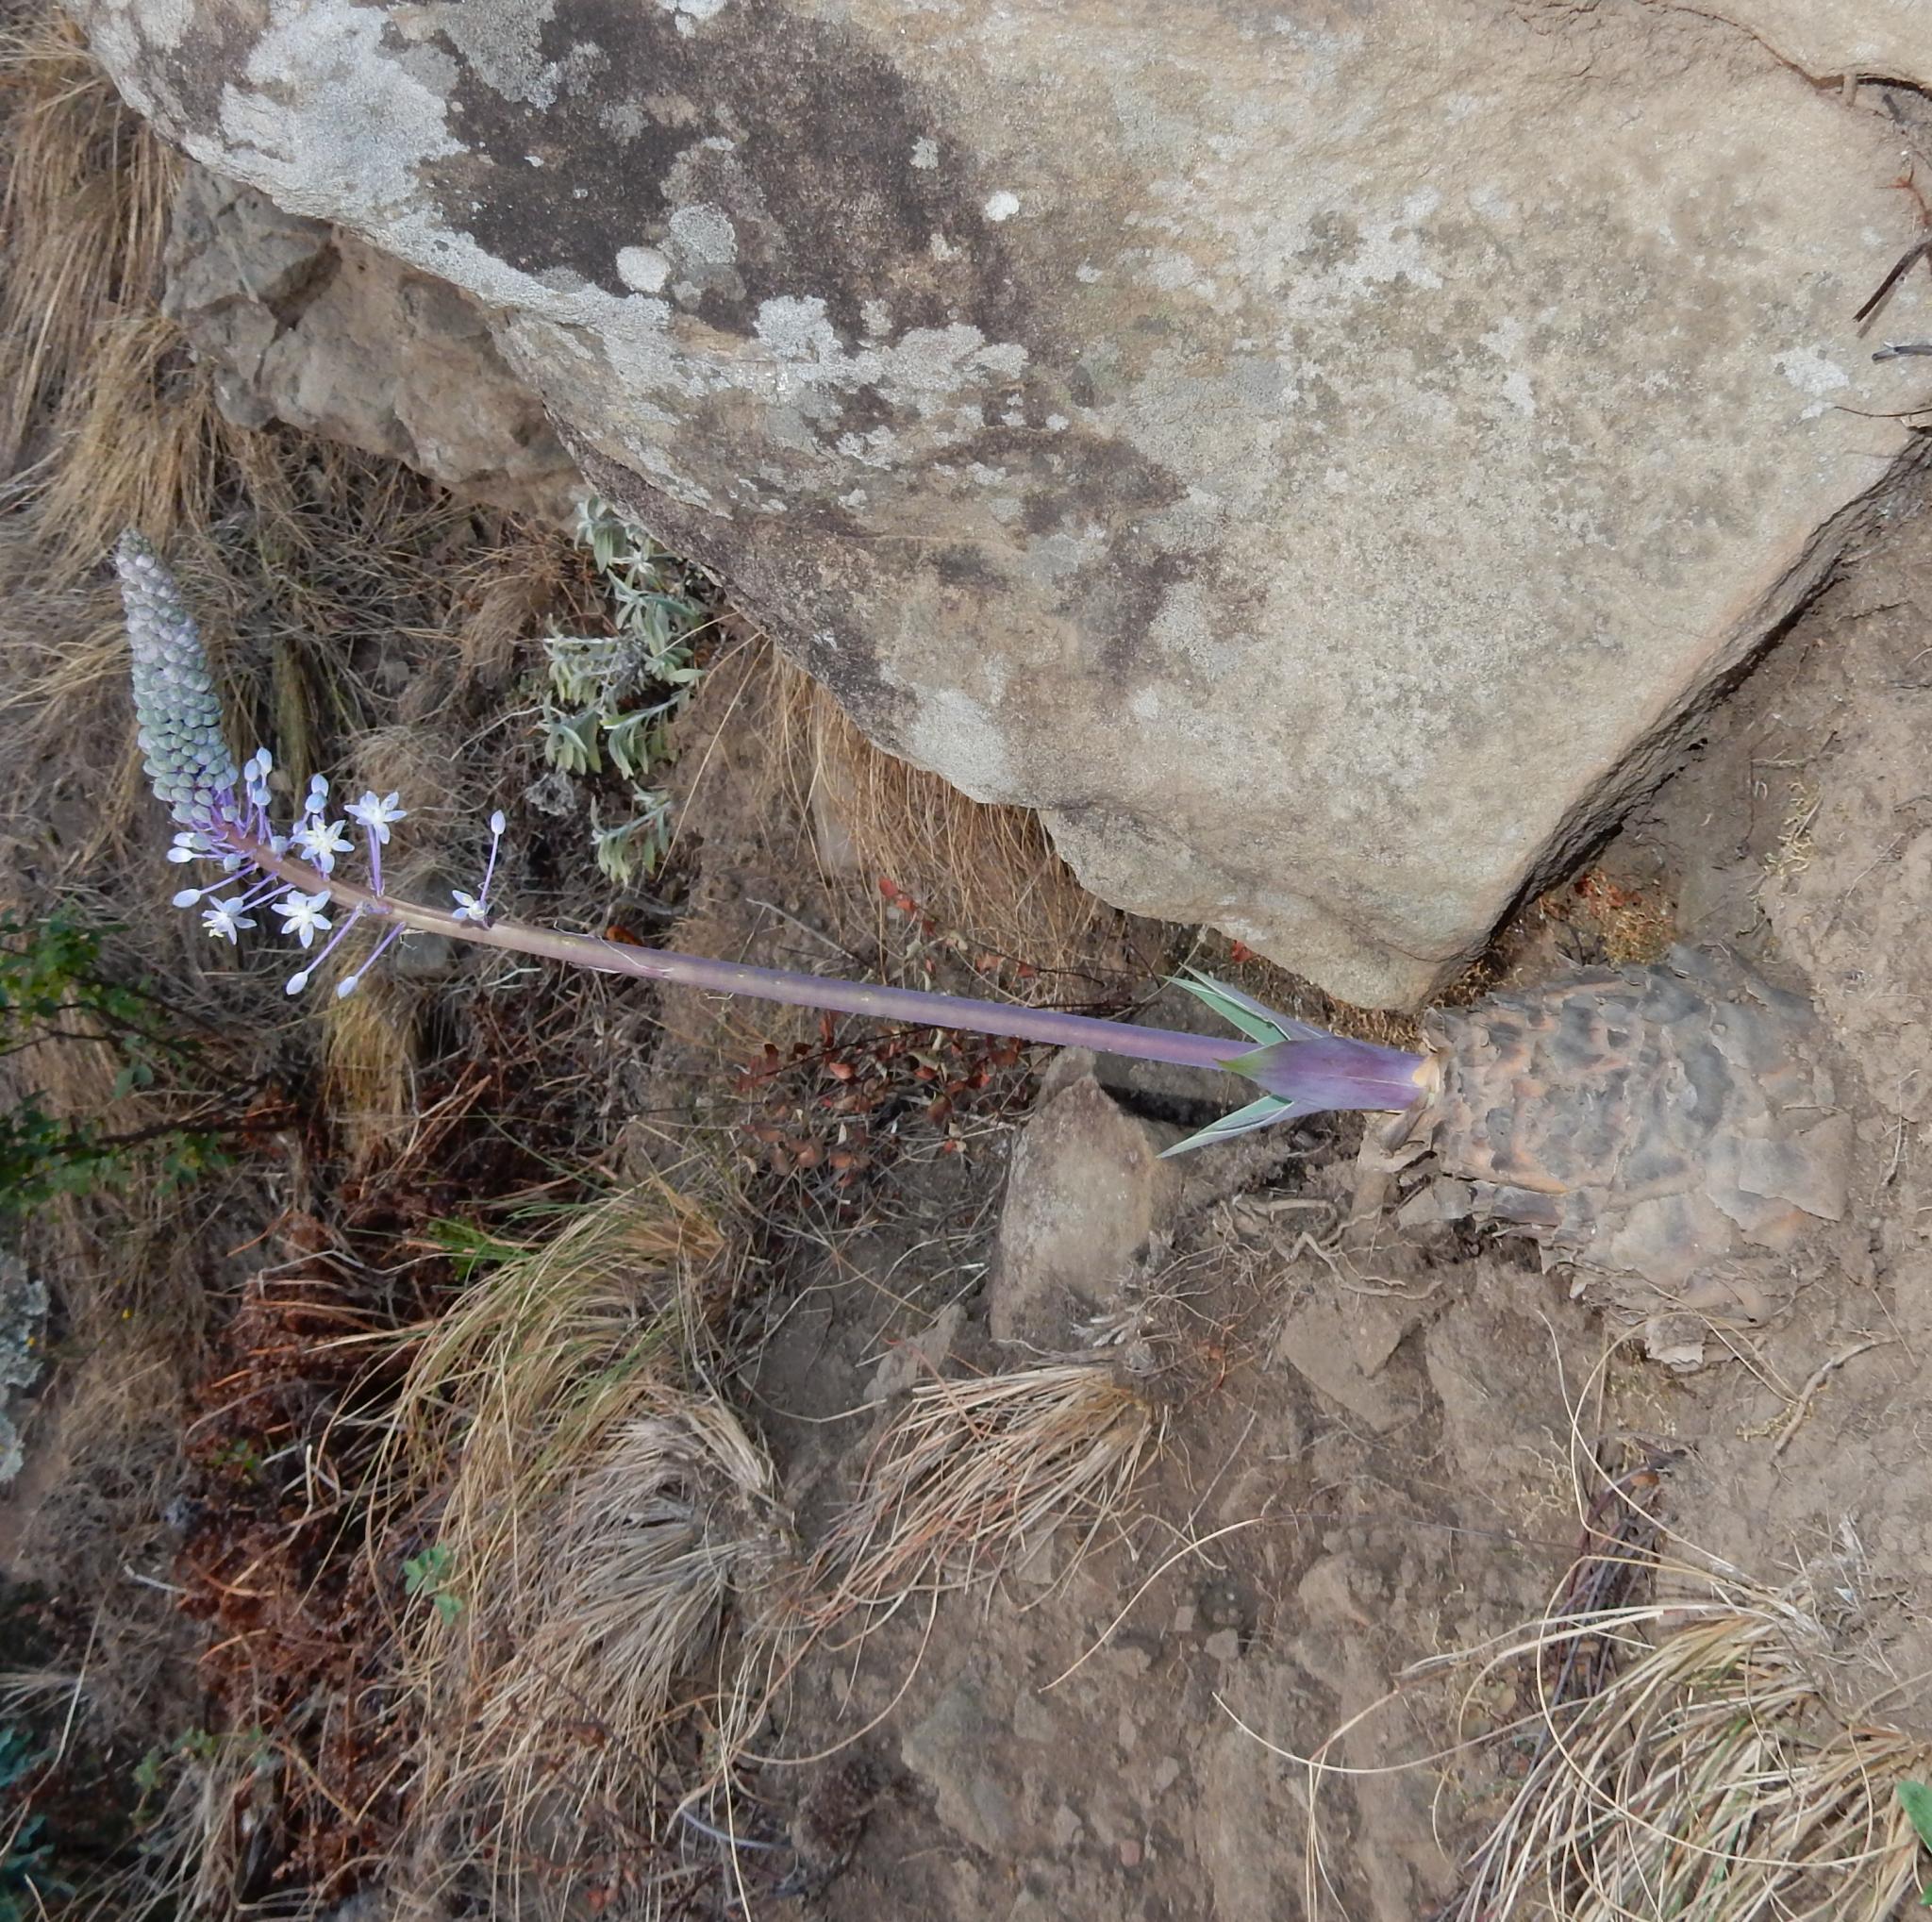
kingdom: Plantae
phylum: Tracheophyta
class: Liliopsida
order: Asparagales
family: Asparagaceae
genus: Merwilla
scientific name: Merwilla plumbea
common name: Blue-squill
